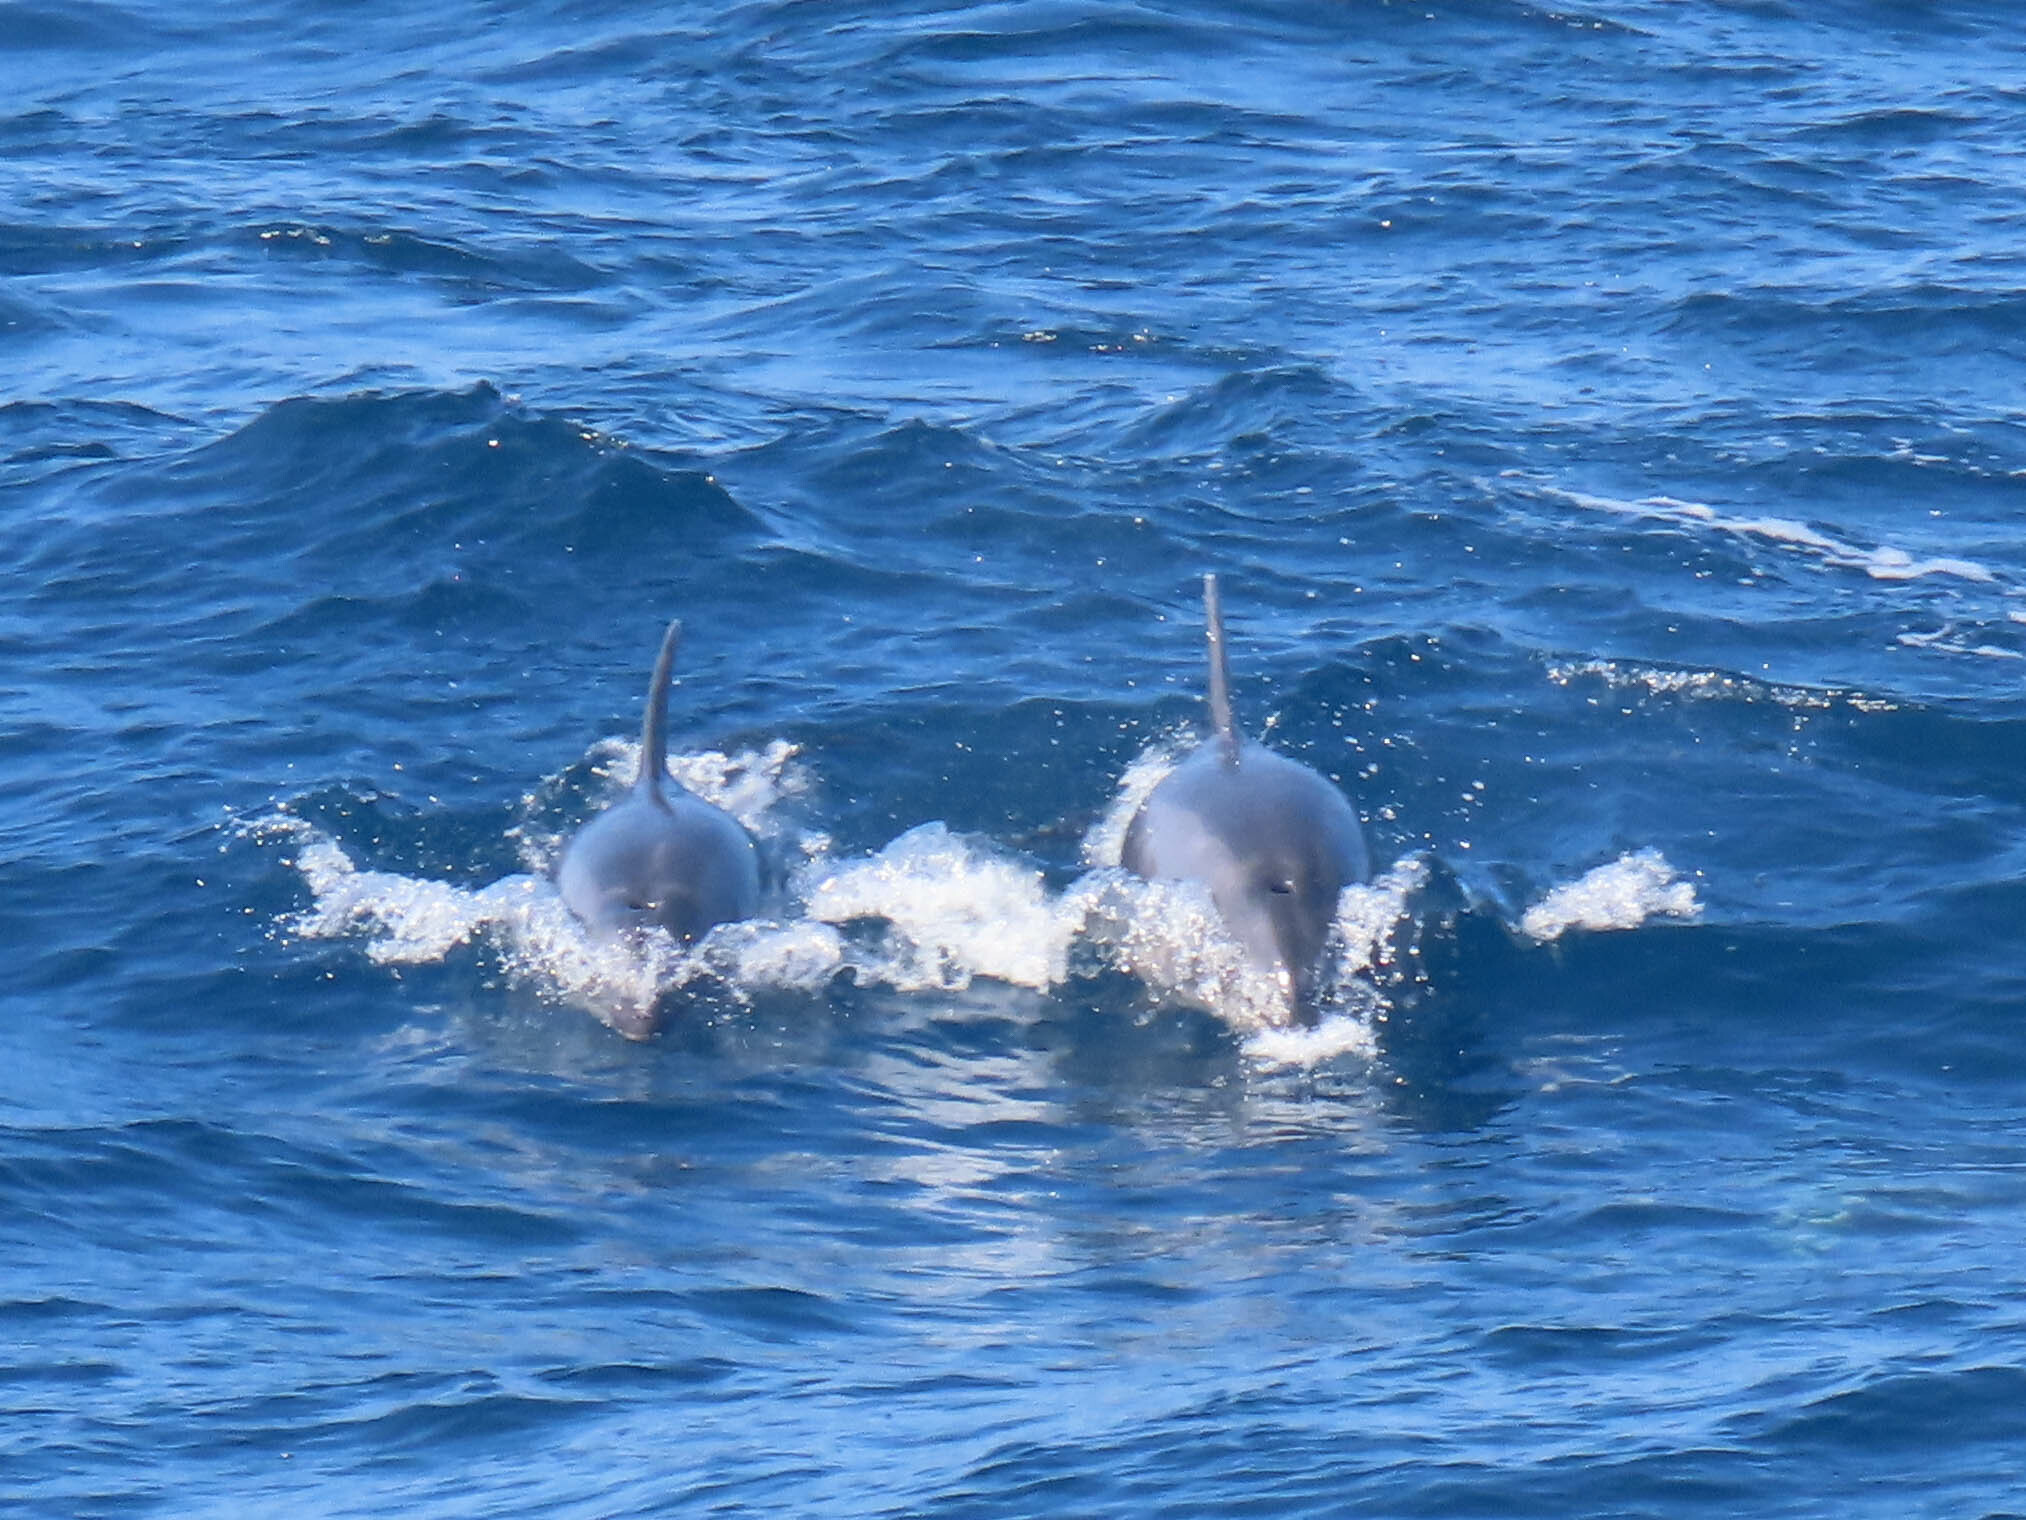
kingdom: Animalia
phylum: Chordata
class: Mammalia
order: Cetacea
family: Delphinidae
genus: Tursiops
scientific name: Tursiops truncatus
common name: Bottlenose dolphin
